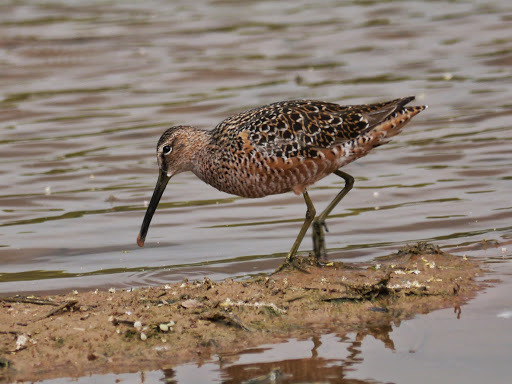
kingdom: Animalia
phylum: Chordata
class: Aves
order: Charadriiformes
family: Scolopacidae
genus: Limnodromus
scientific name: Limnodromus scolopaceus
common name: Long-billed dowitcher
